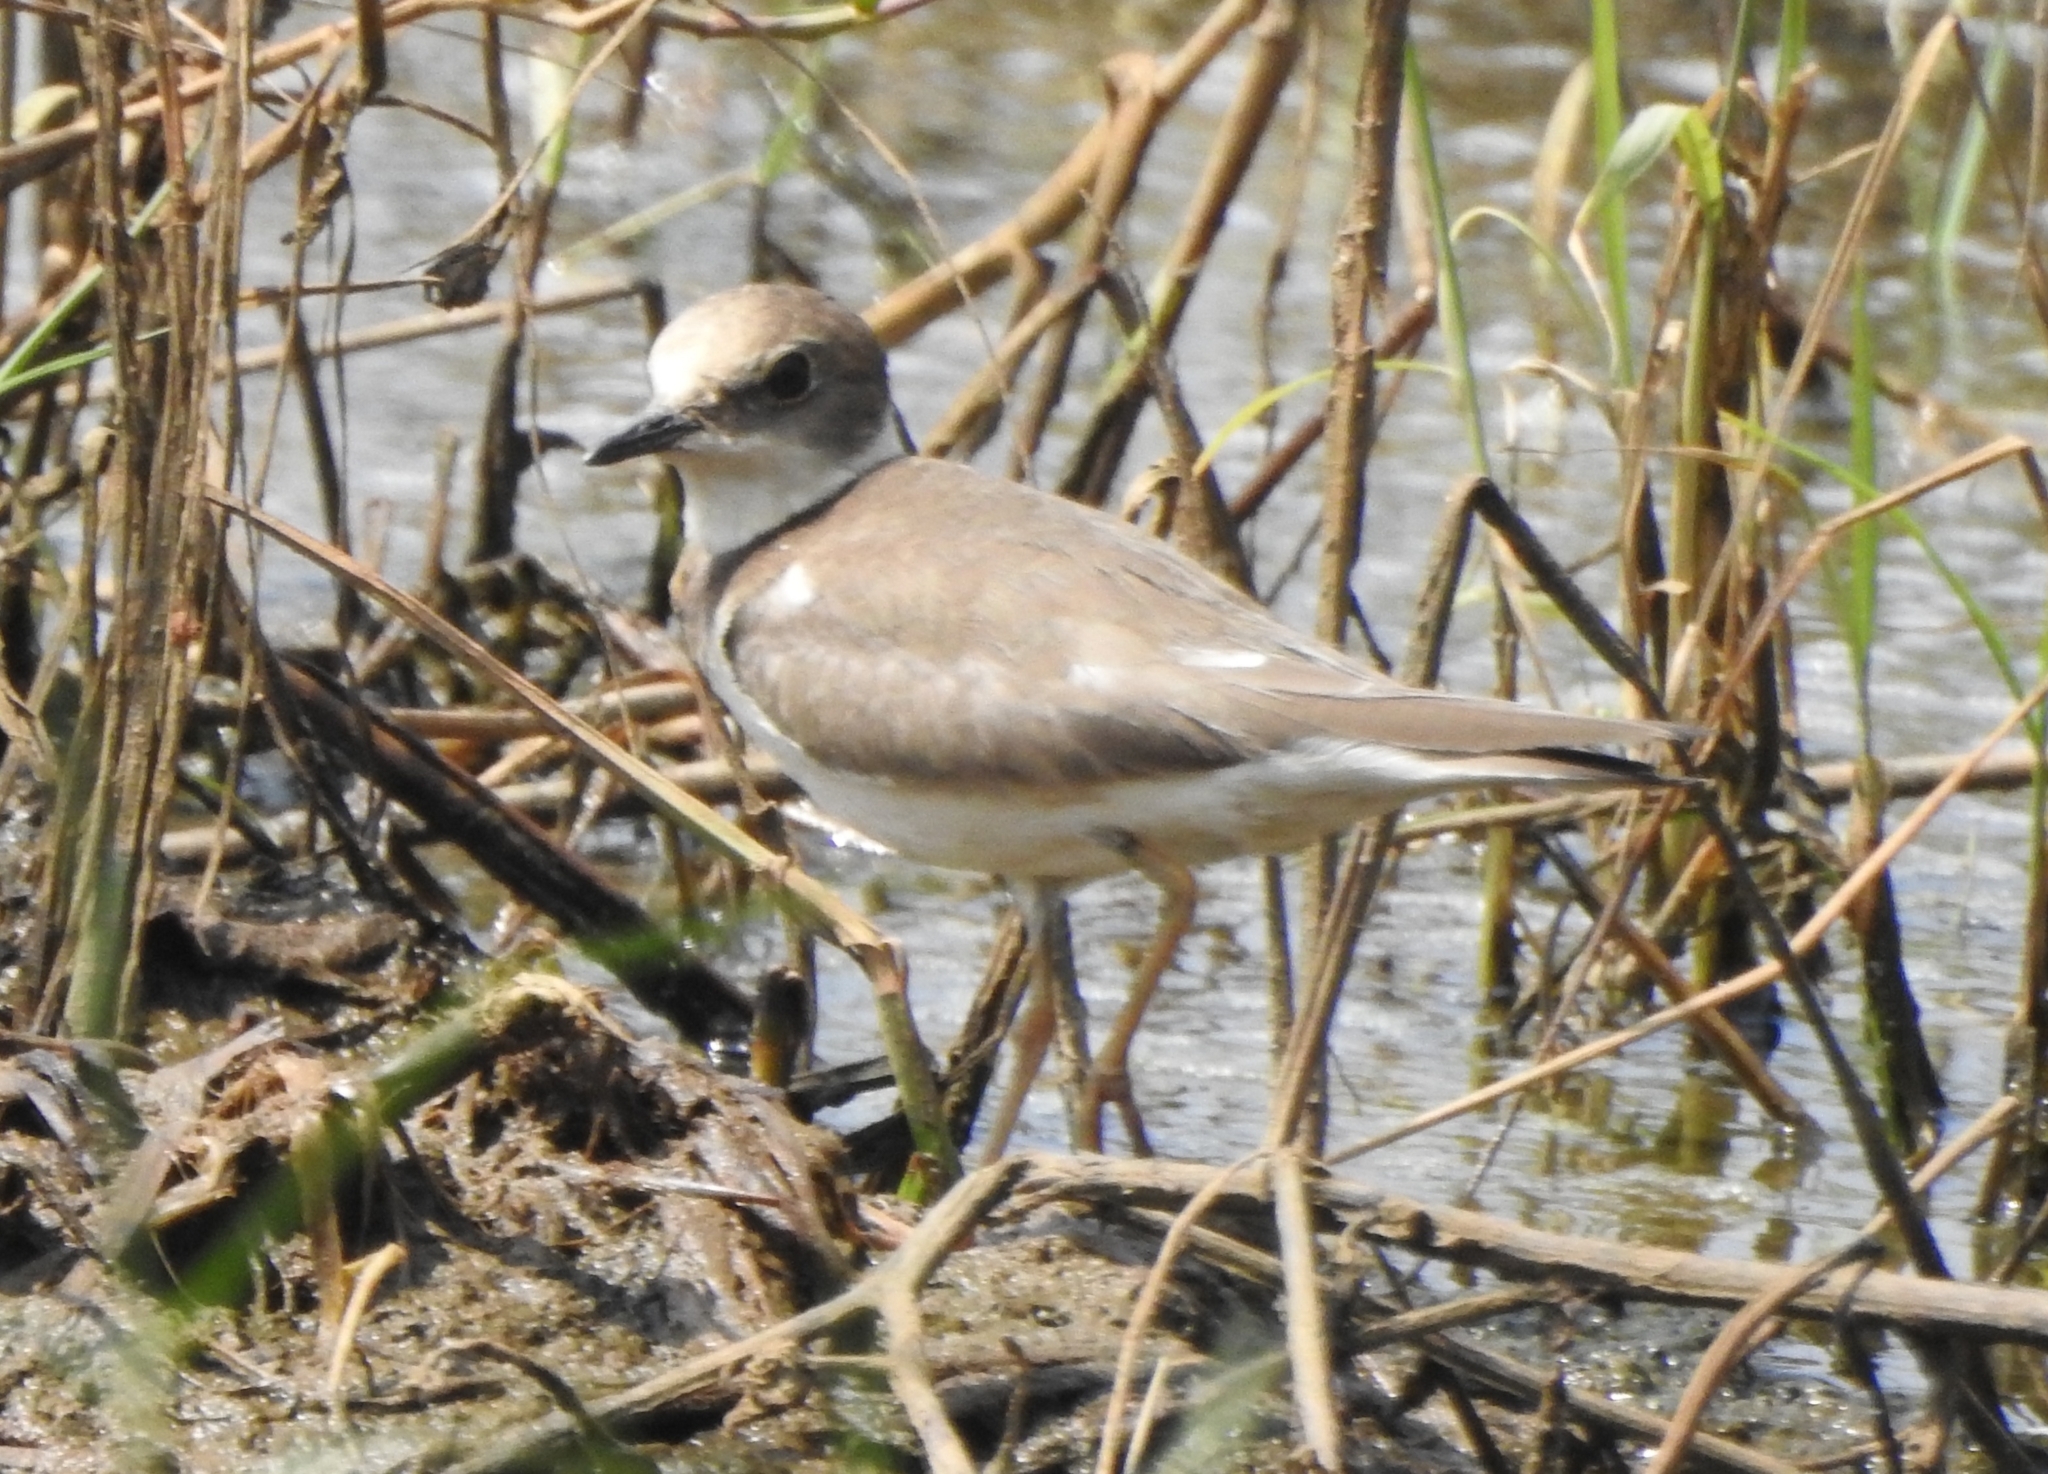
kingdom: Animalia
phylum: Chordata
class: Aves
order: Charadriiformes
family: Charadriidae
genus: Charadrius
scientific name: Charadrius dubius
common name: Little ringed plover
